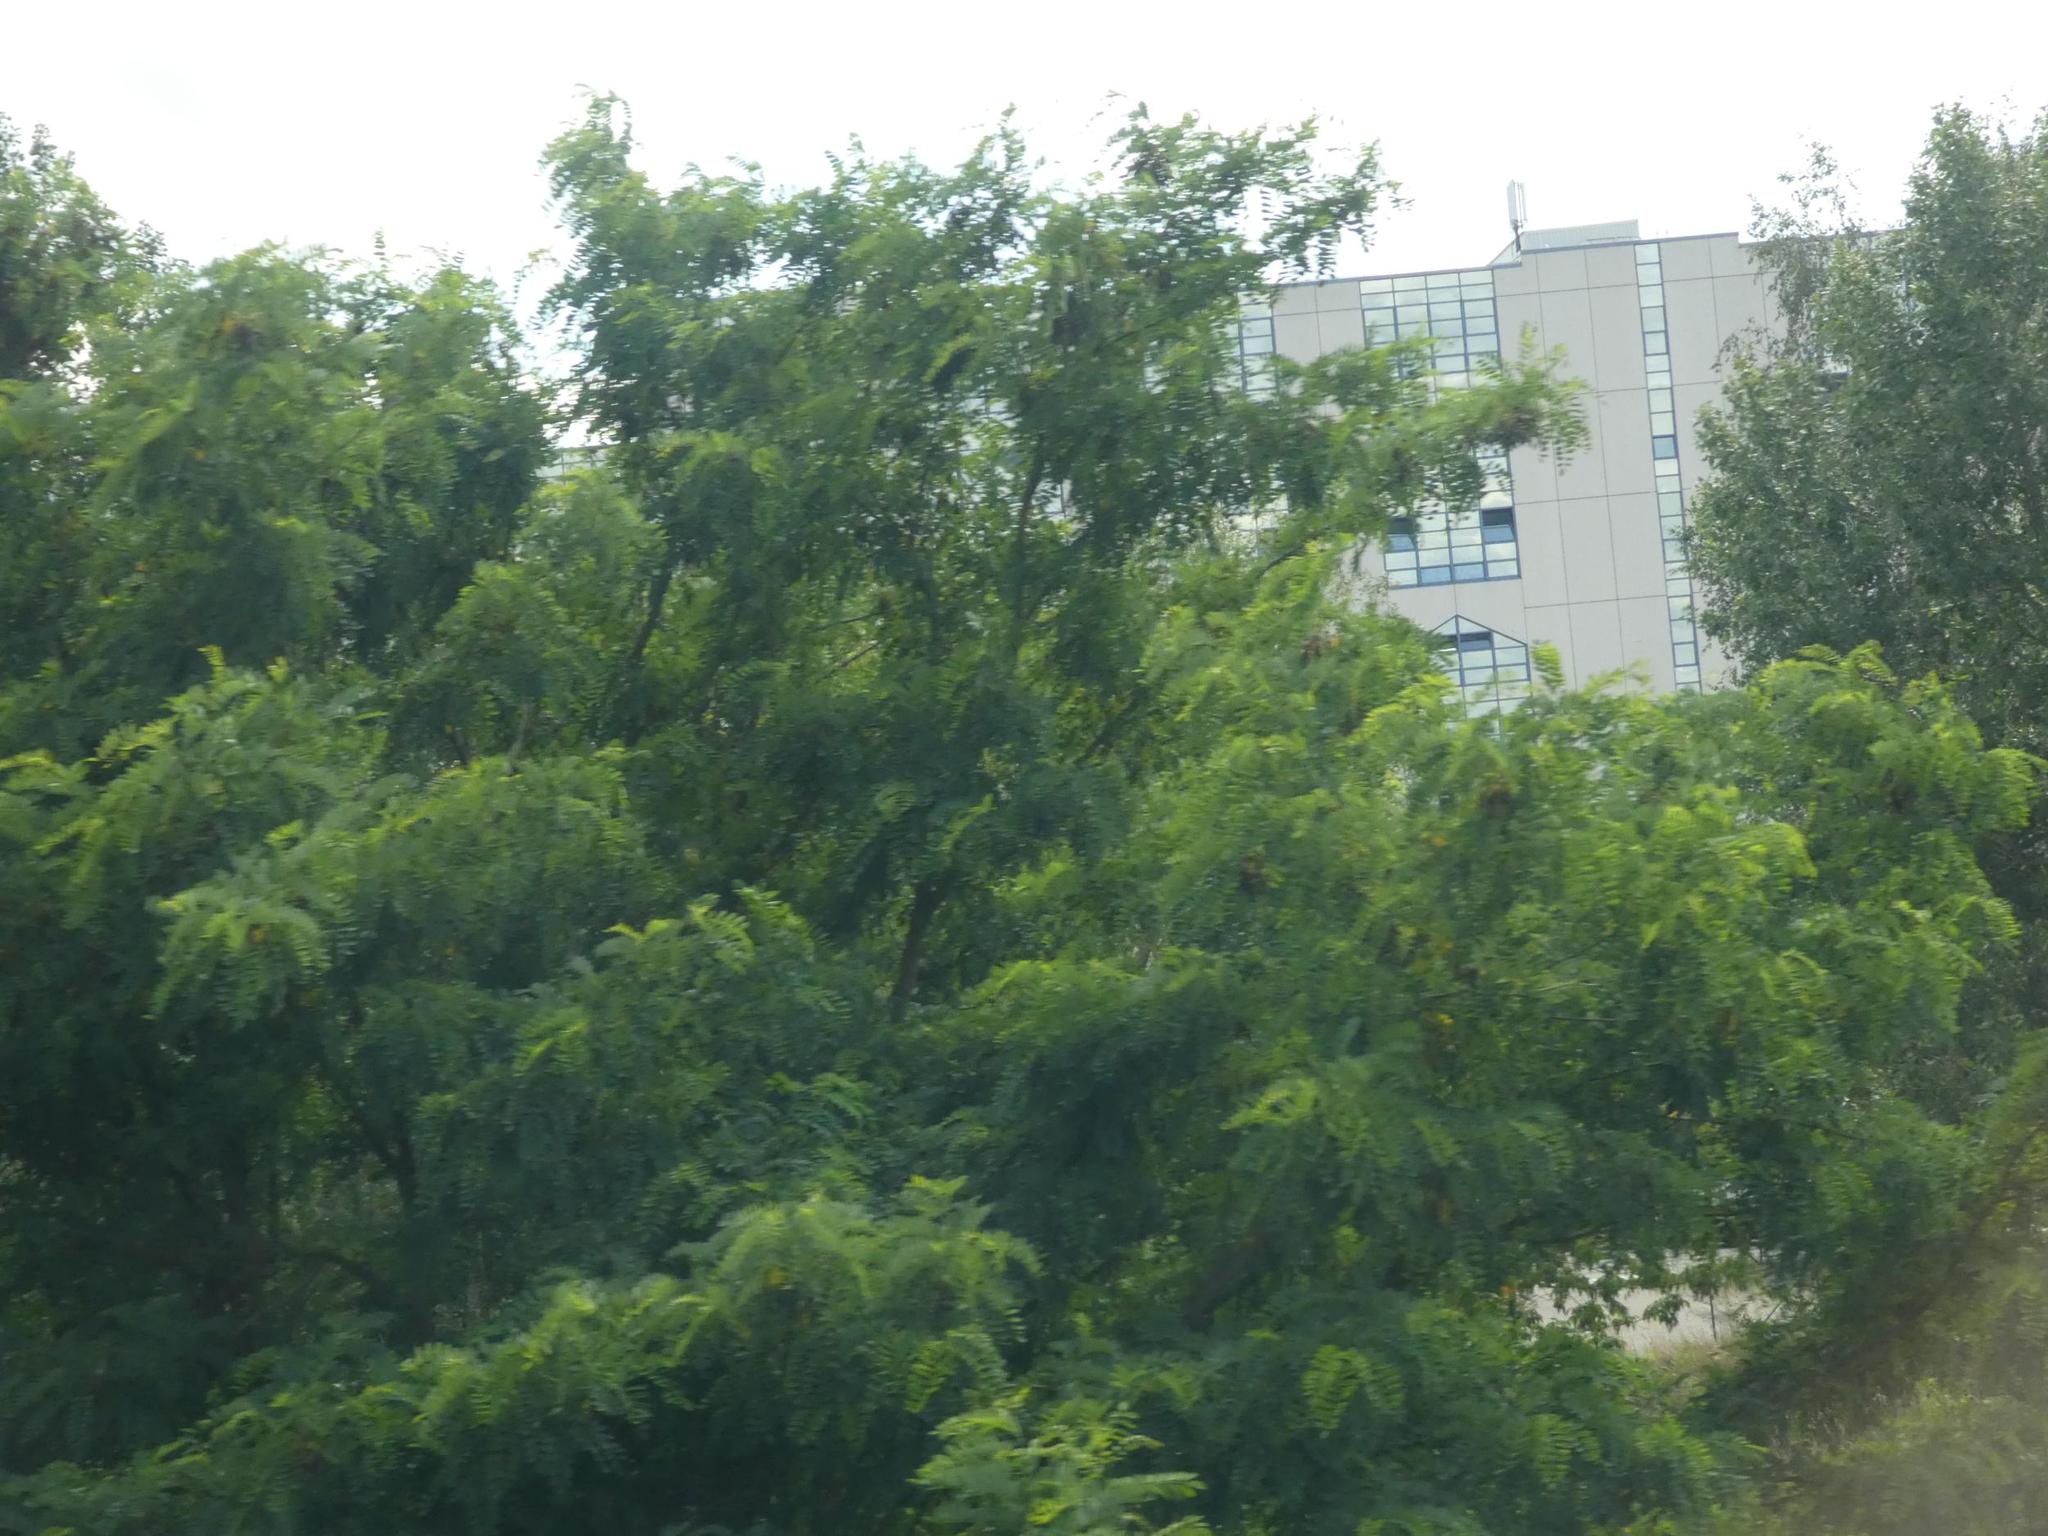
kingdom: Plantae
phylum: Tracheophyta
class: Magnoliopsida
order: Fabales
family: Fabaceae
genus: Robinia
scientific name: Robinia pseudoacacia
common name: Black locust
